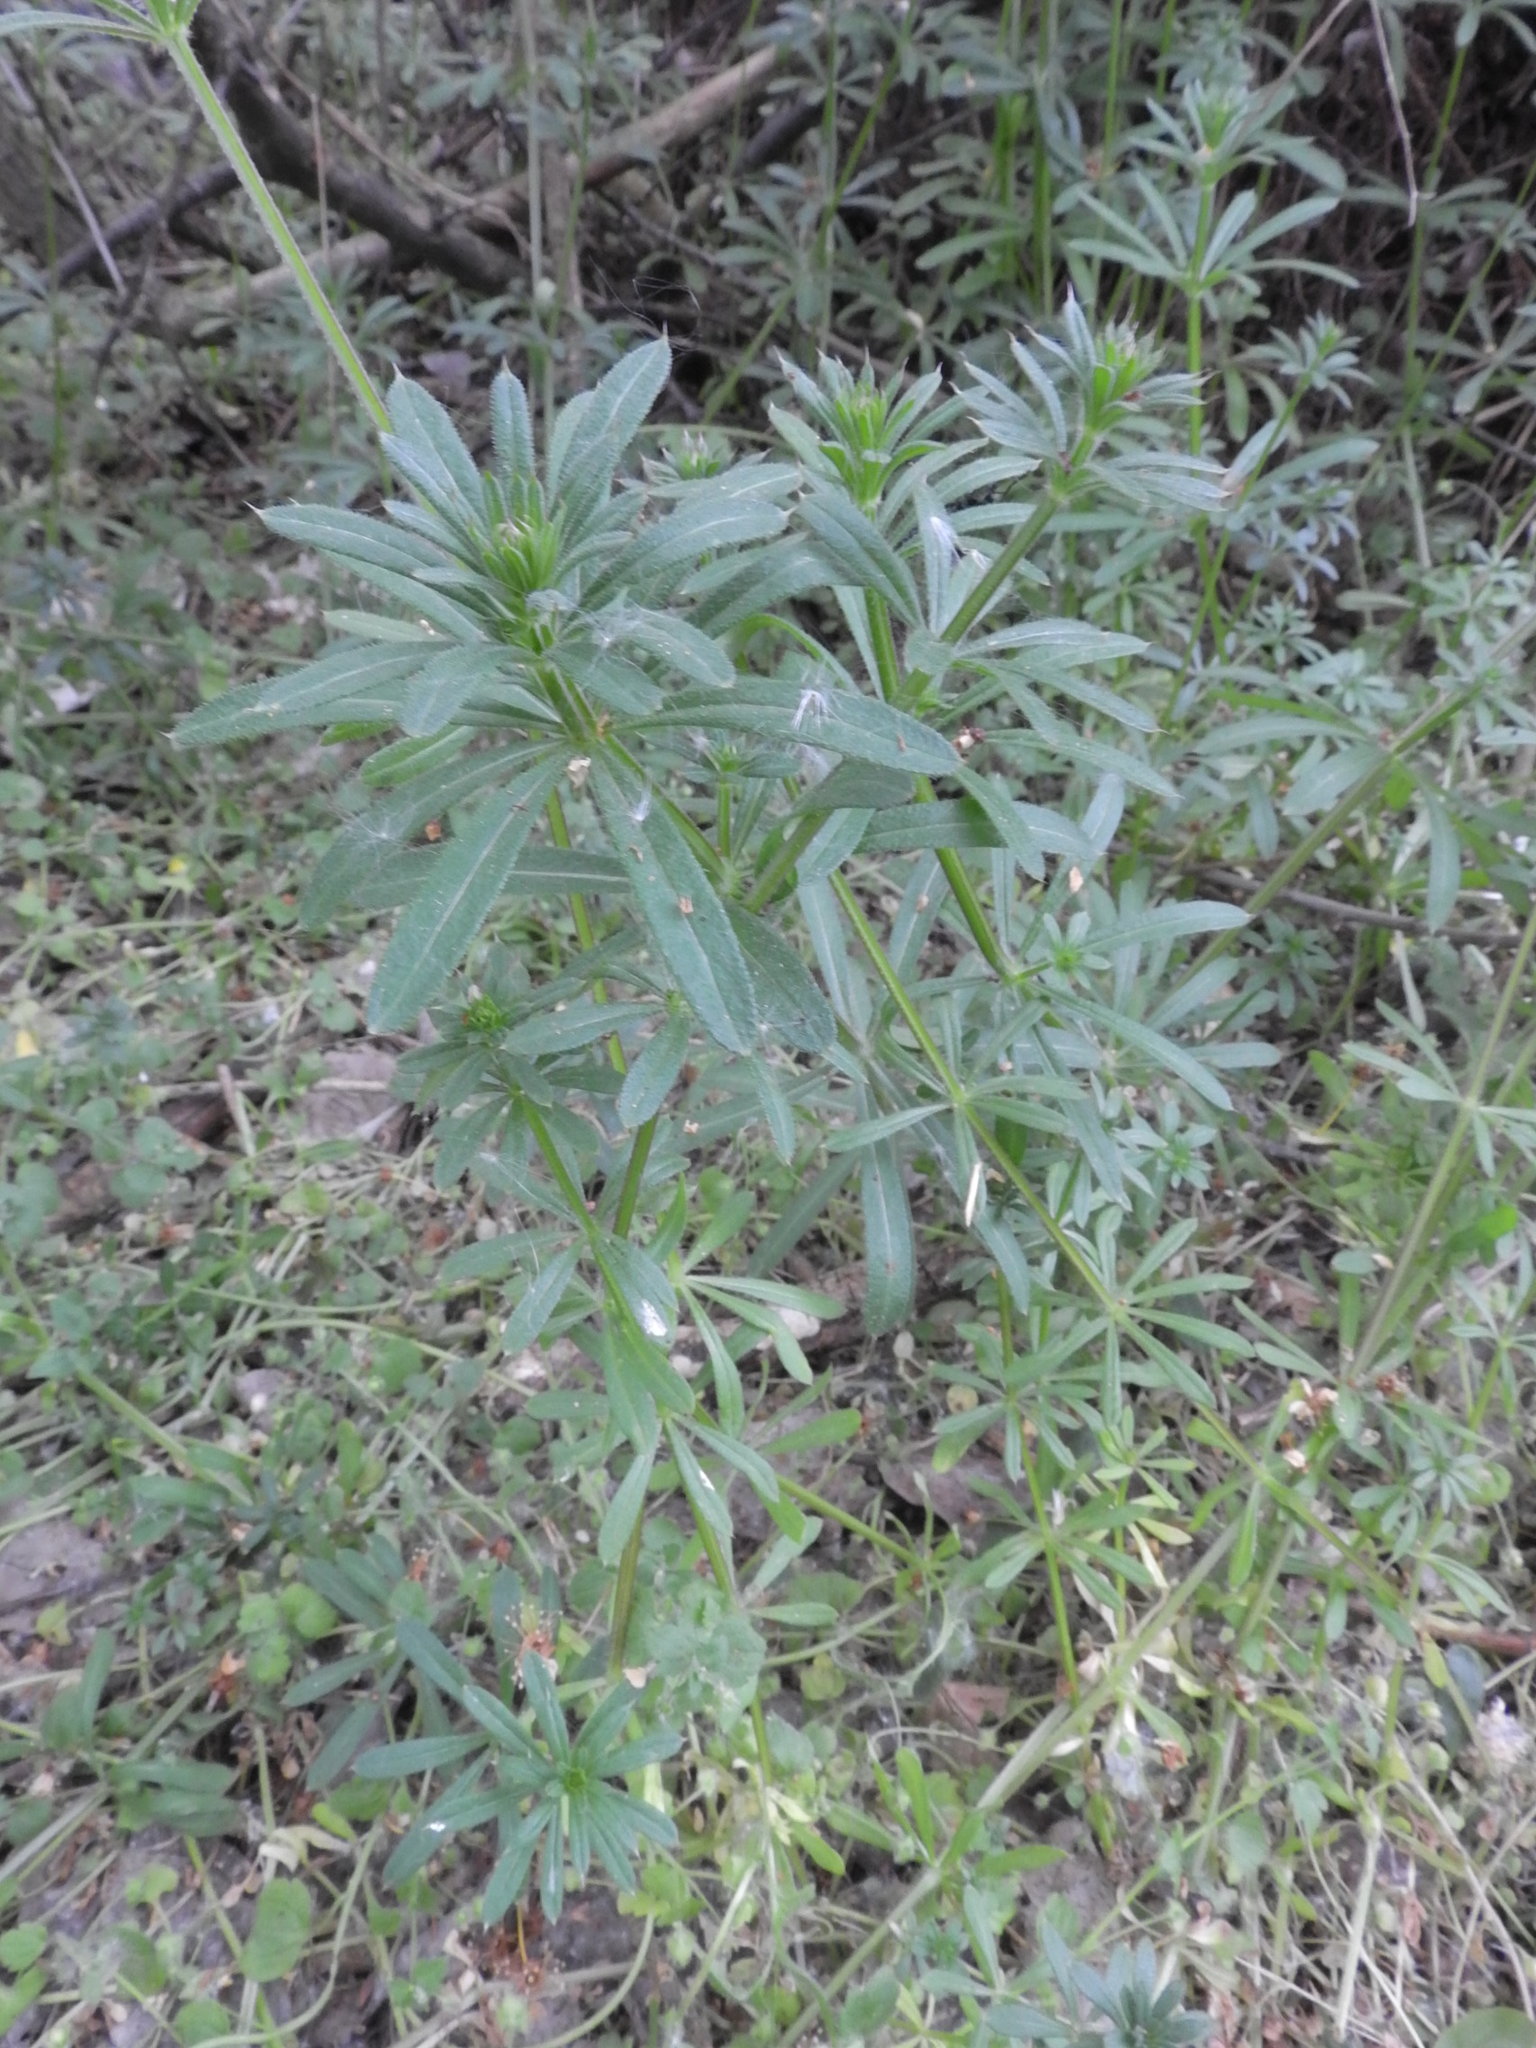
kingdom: Plantae
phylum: Tracheophyta
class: Magnoliopsida
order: Gentianales
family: Rubiaceae
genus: Galium
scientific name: Galium aparine
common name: Cleavers
